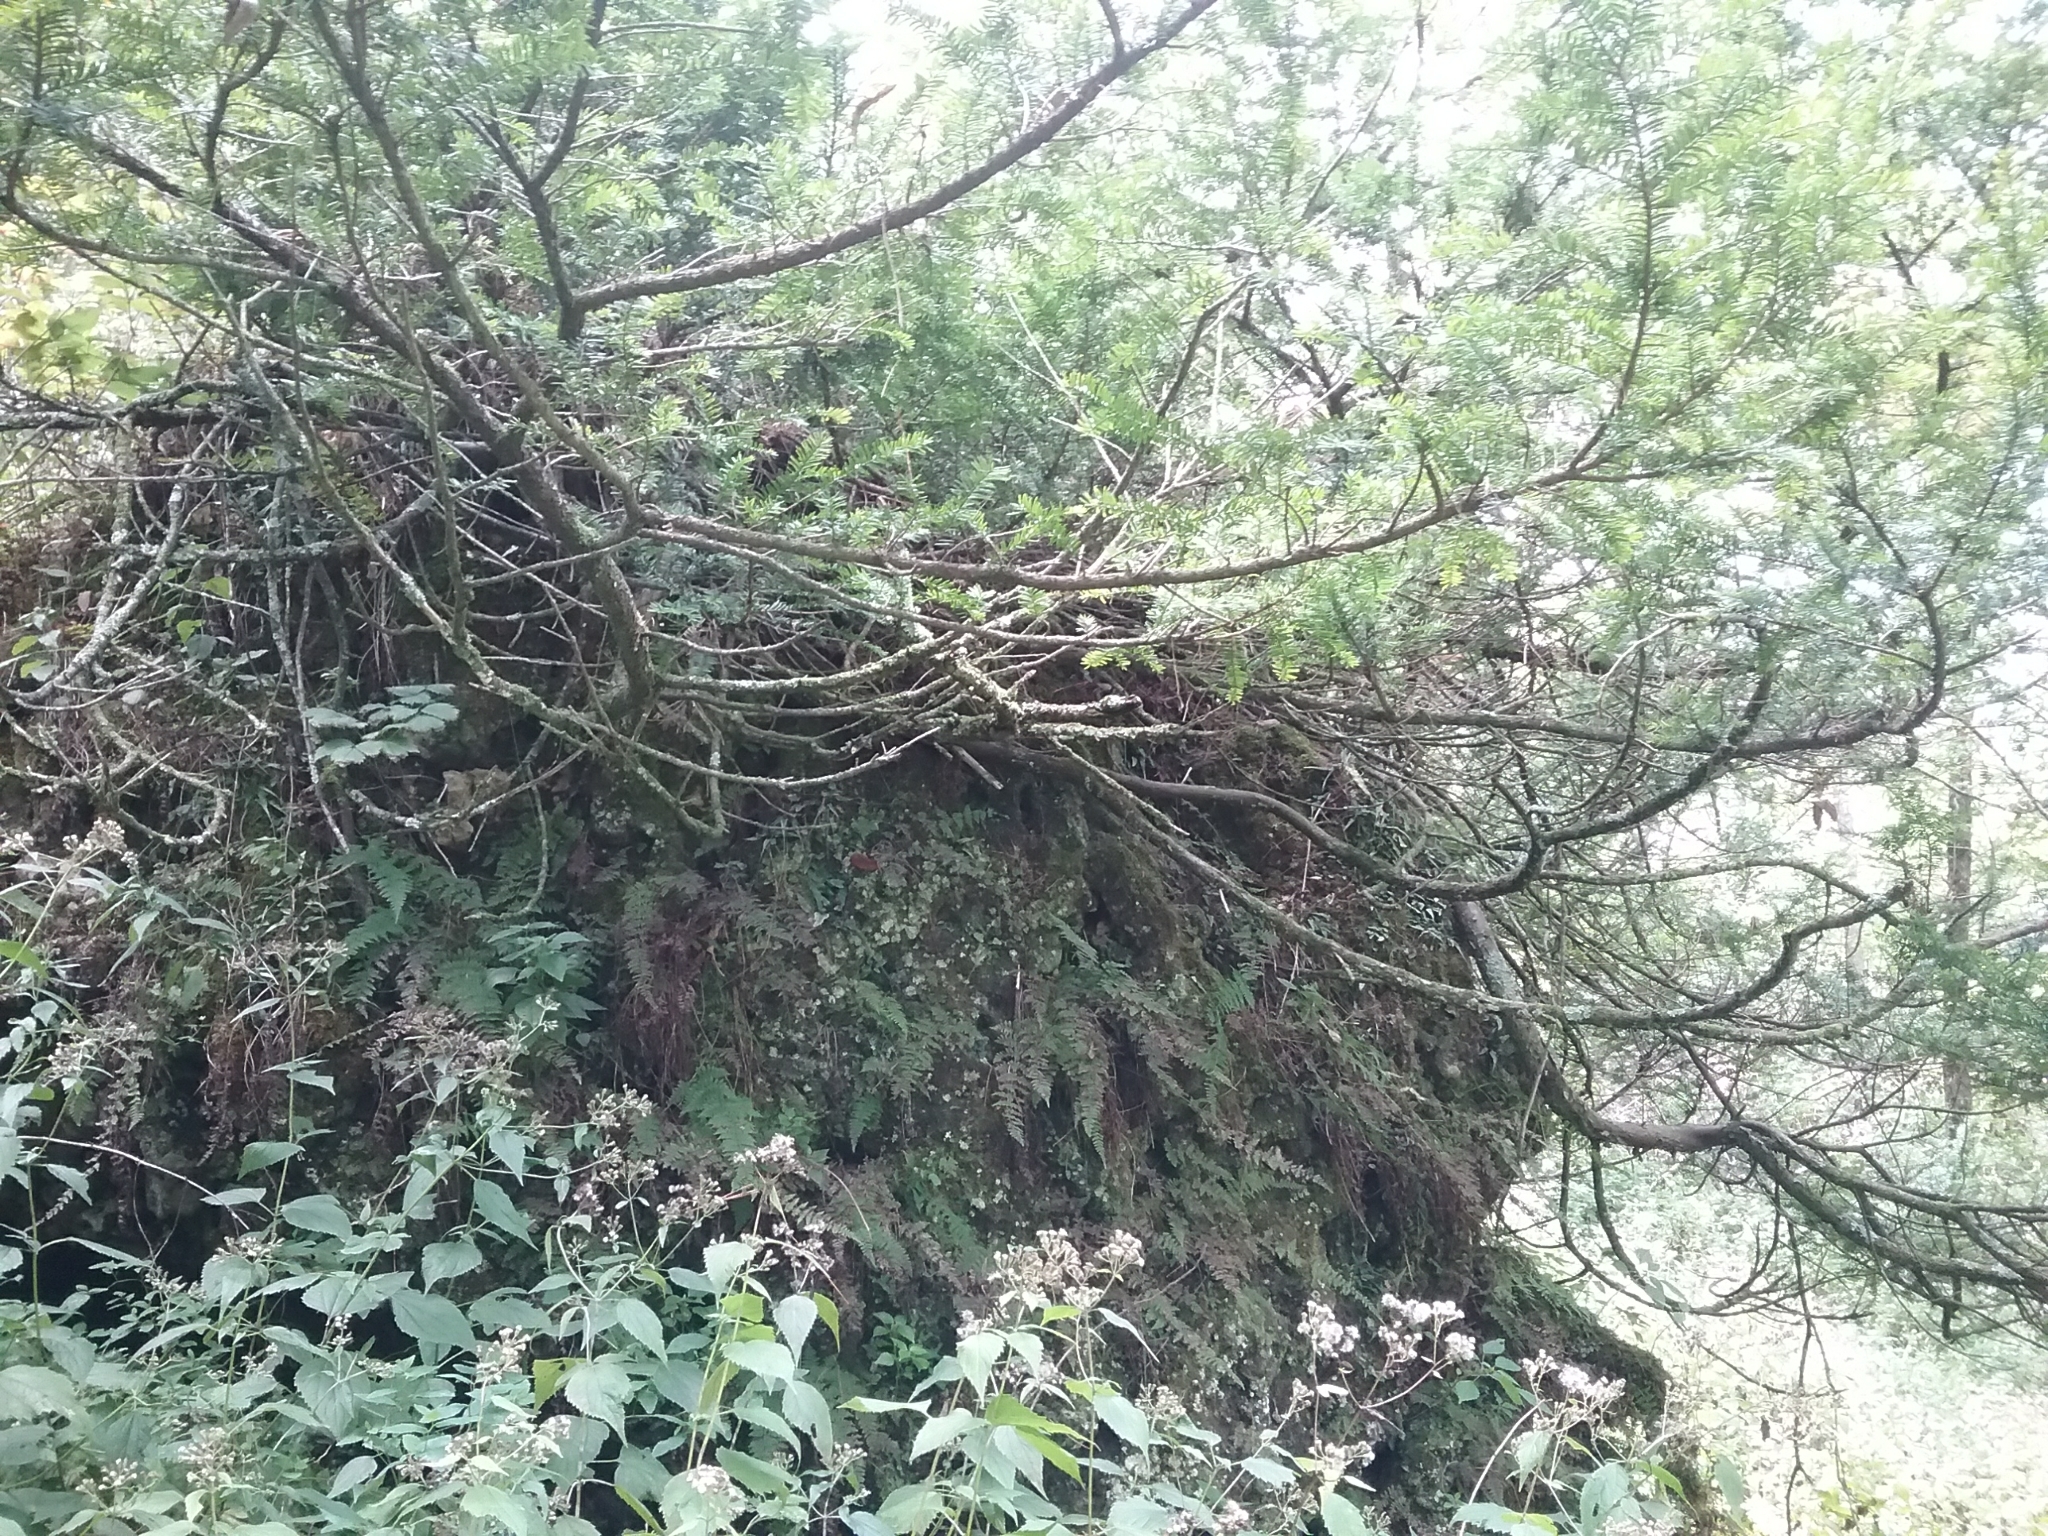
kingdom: Plantae
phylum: Tracheophyta
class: Pinopsida
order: Pinales
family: Taxaceae
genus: Taxus
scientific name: Taxus canadensis
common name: American yew
